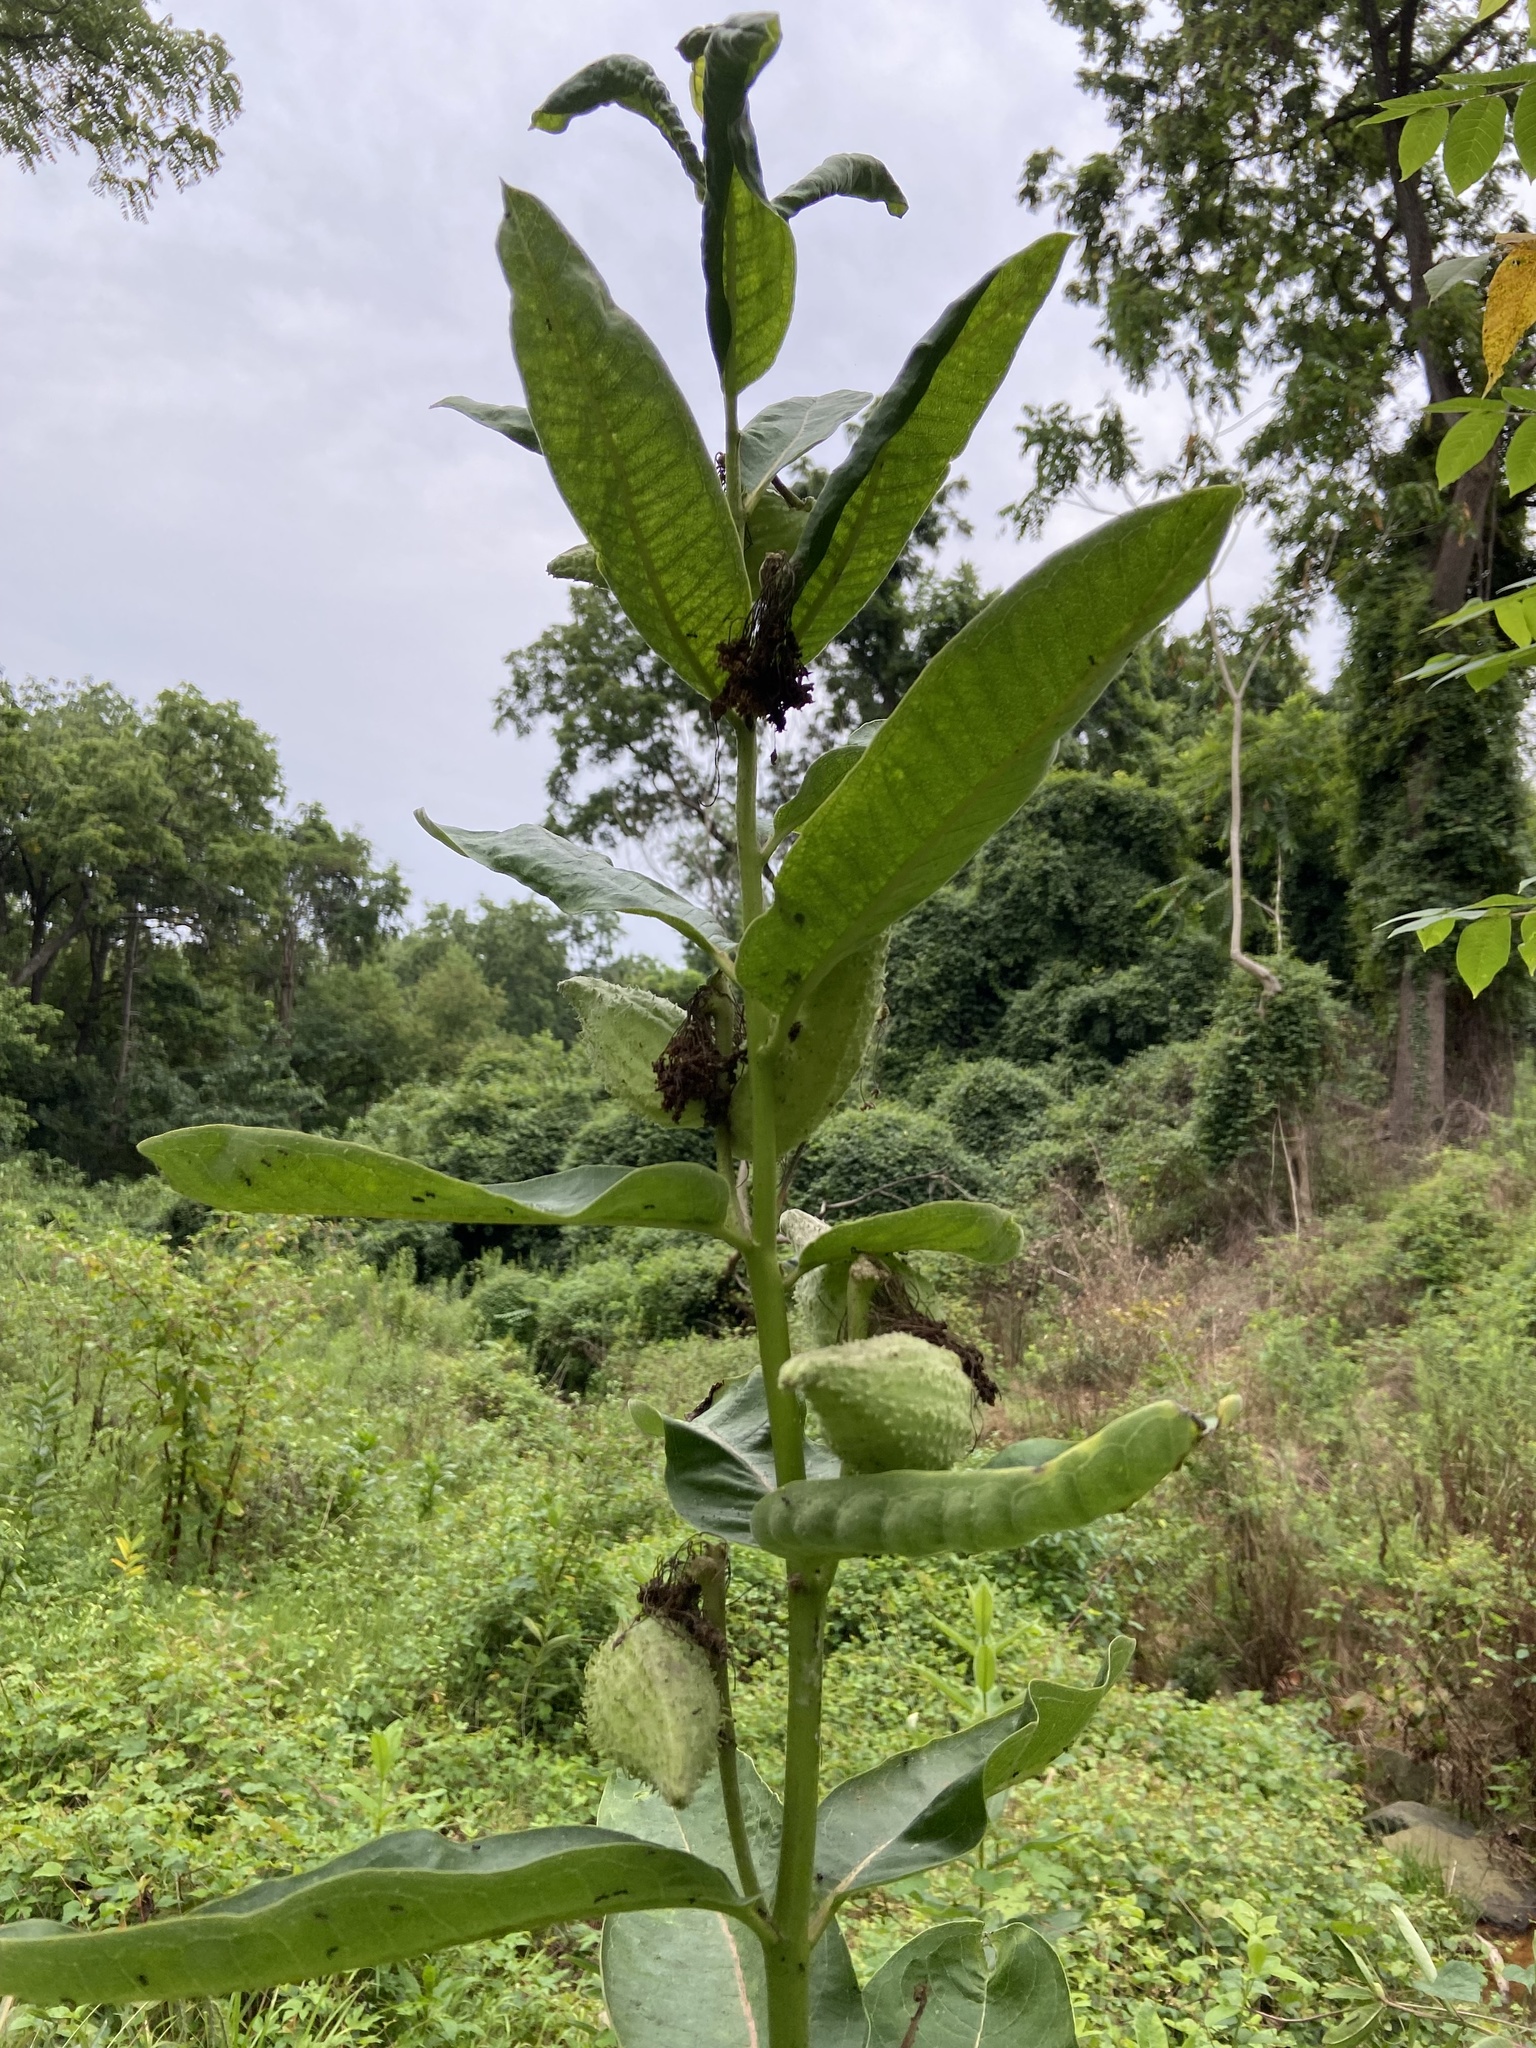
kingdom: Plantae
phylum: Tracheophyta
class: Magnoliopsida
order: Gentianales
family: Apocynaceae
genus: Asclepias
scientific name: Asclepias syriaca
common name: Common milkweed
